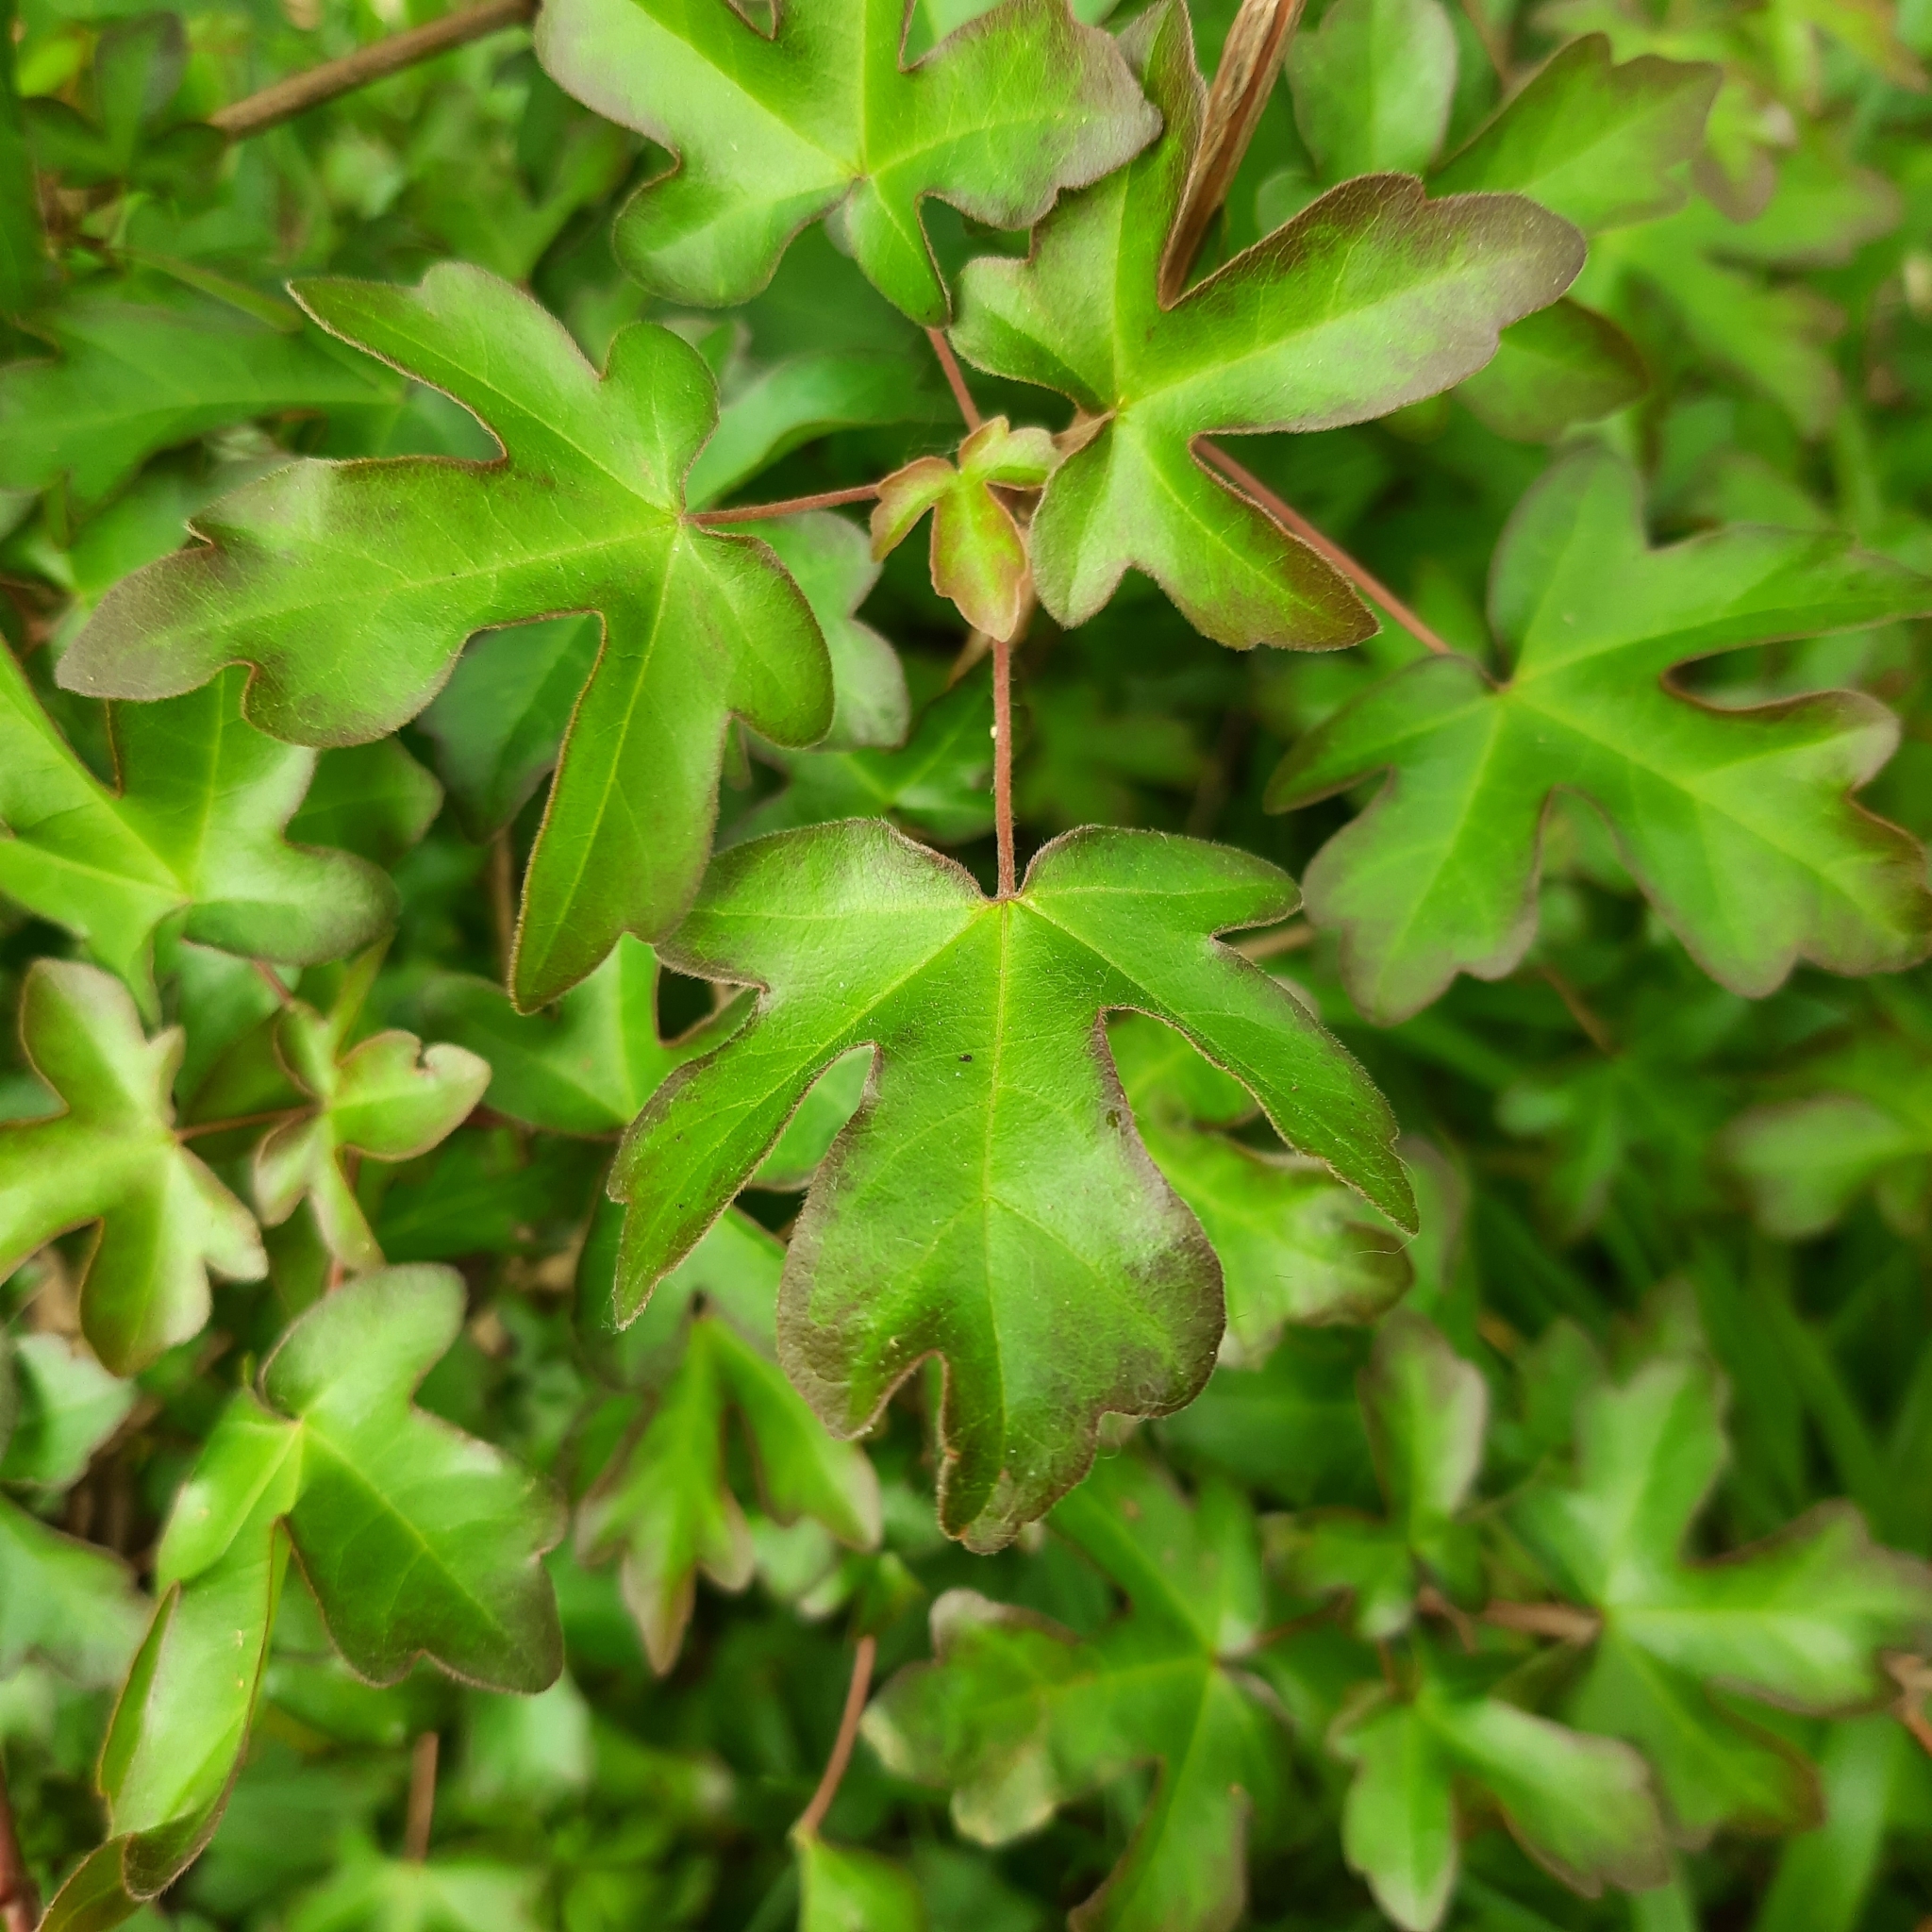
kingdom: Plantae
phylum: Tracheophyta
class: Magnoliopsida
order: Sapindales
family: Sapindaceae
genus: Acer
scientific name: Acer campestre
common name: Field maple
